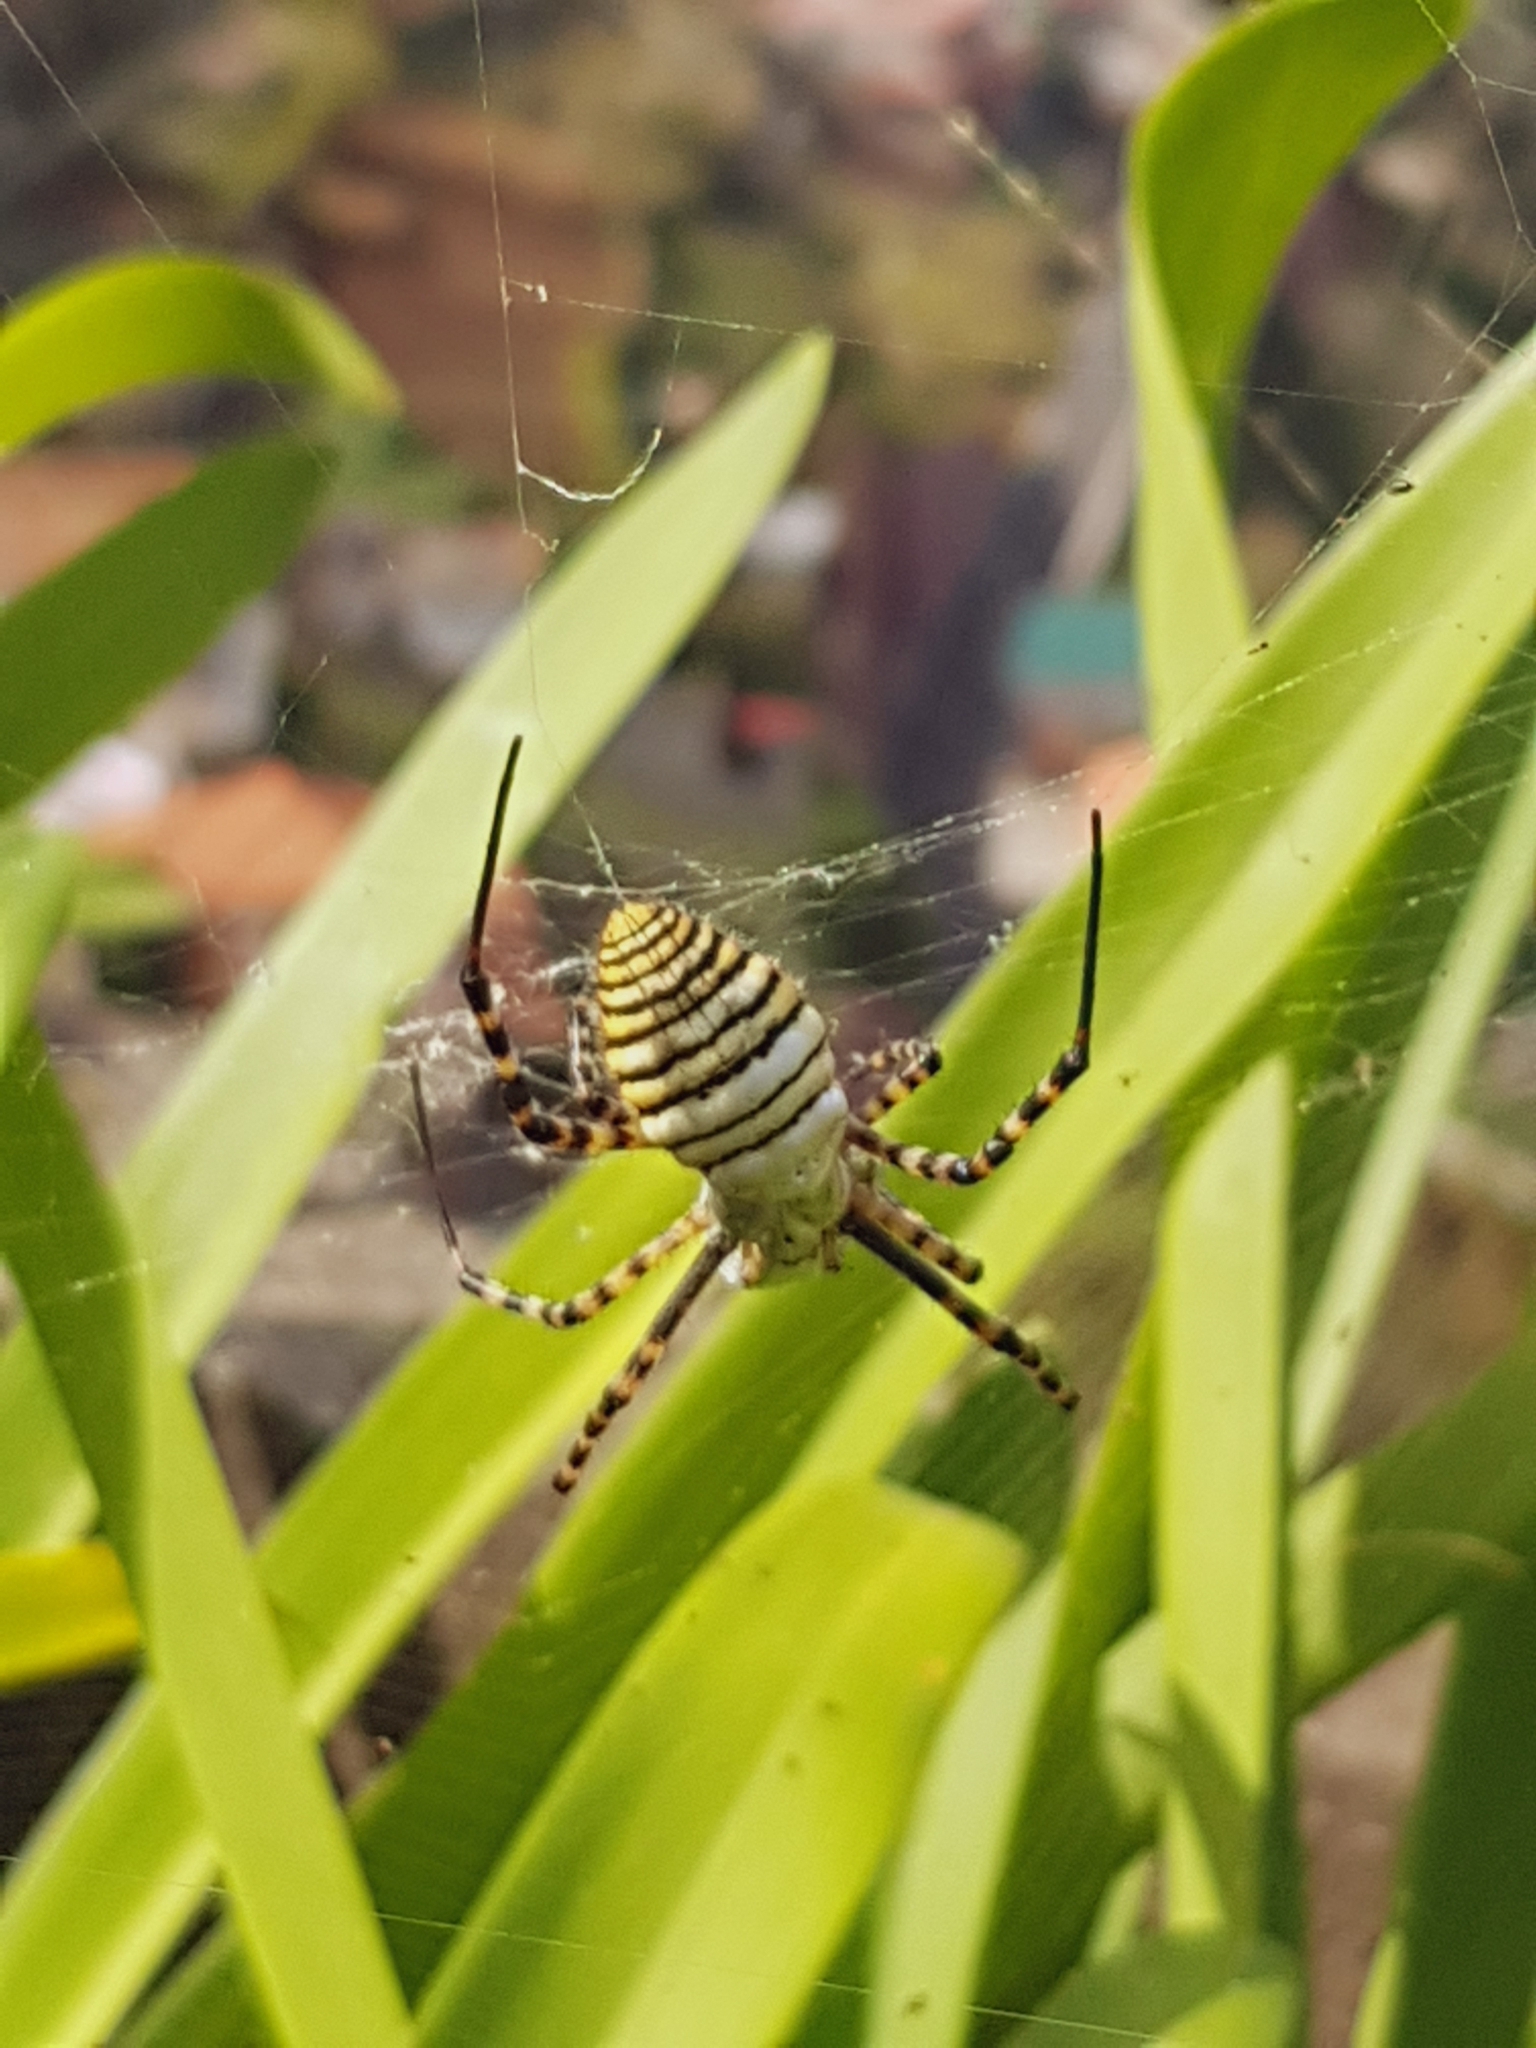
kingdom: Animalia
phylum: Arthropoda
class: Arachnida
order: Araneae
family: Araneidae
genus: Argiope
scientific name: Argiope trifasciata
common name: Banded garden spider
